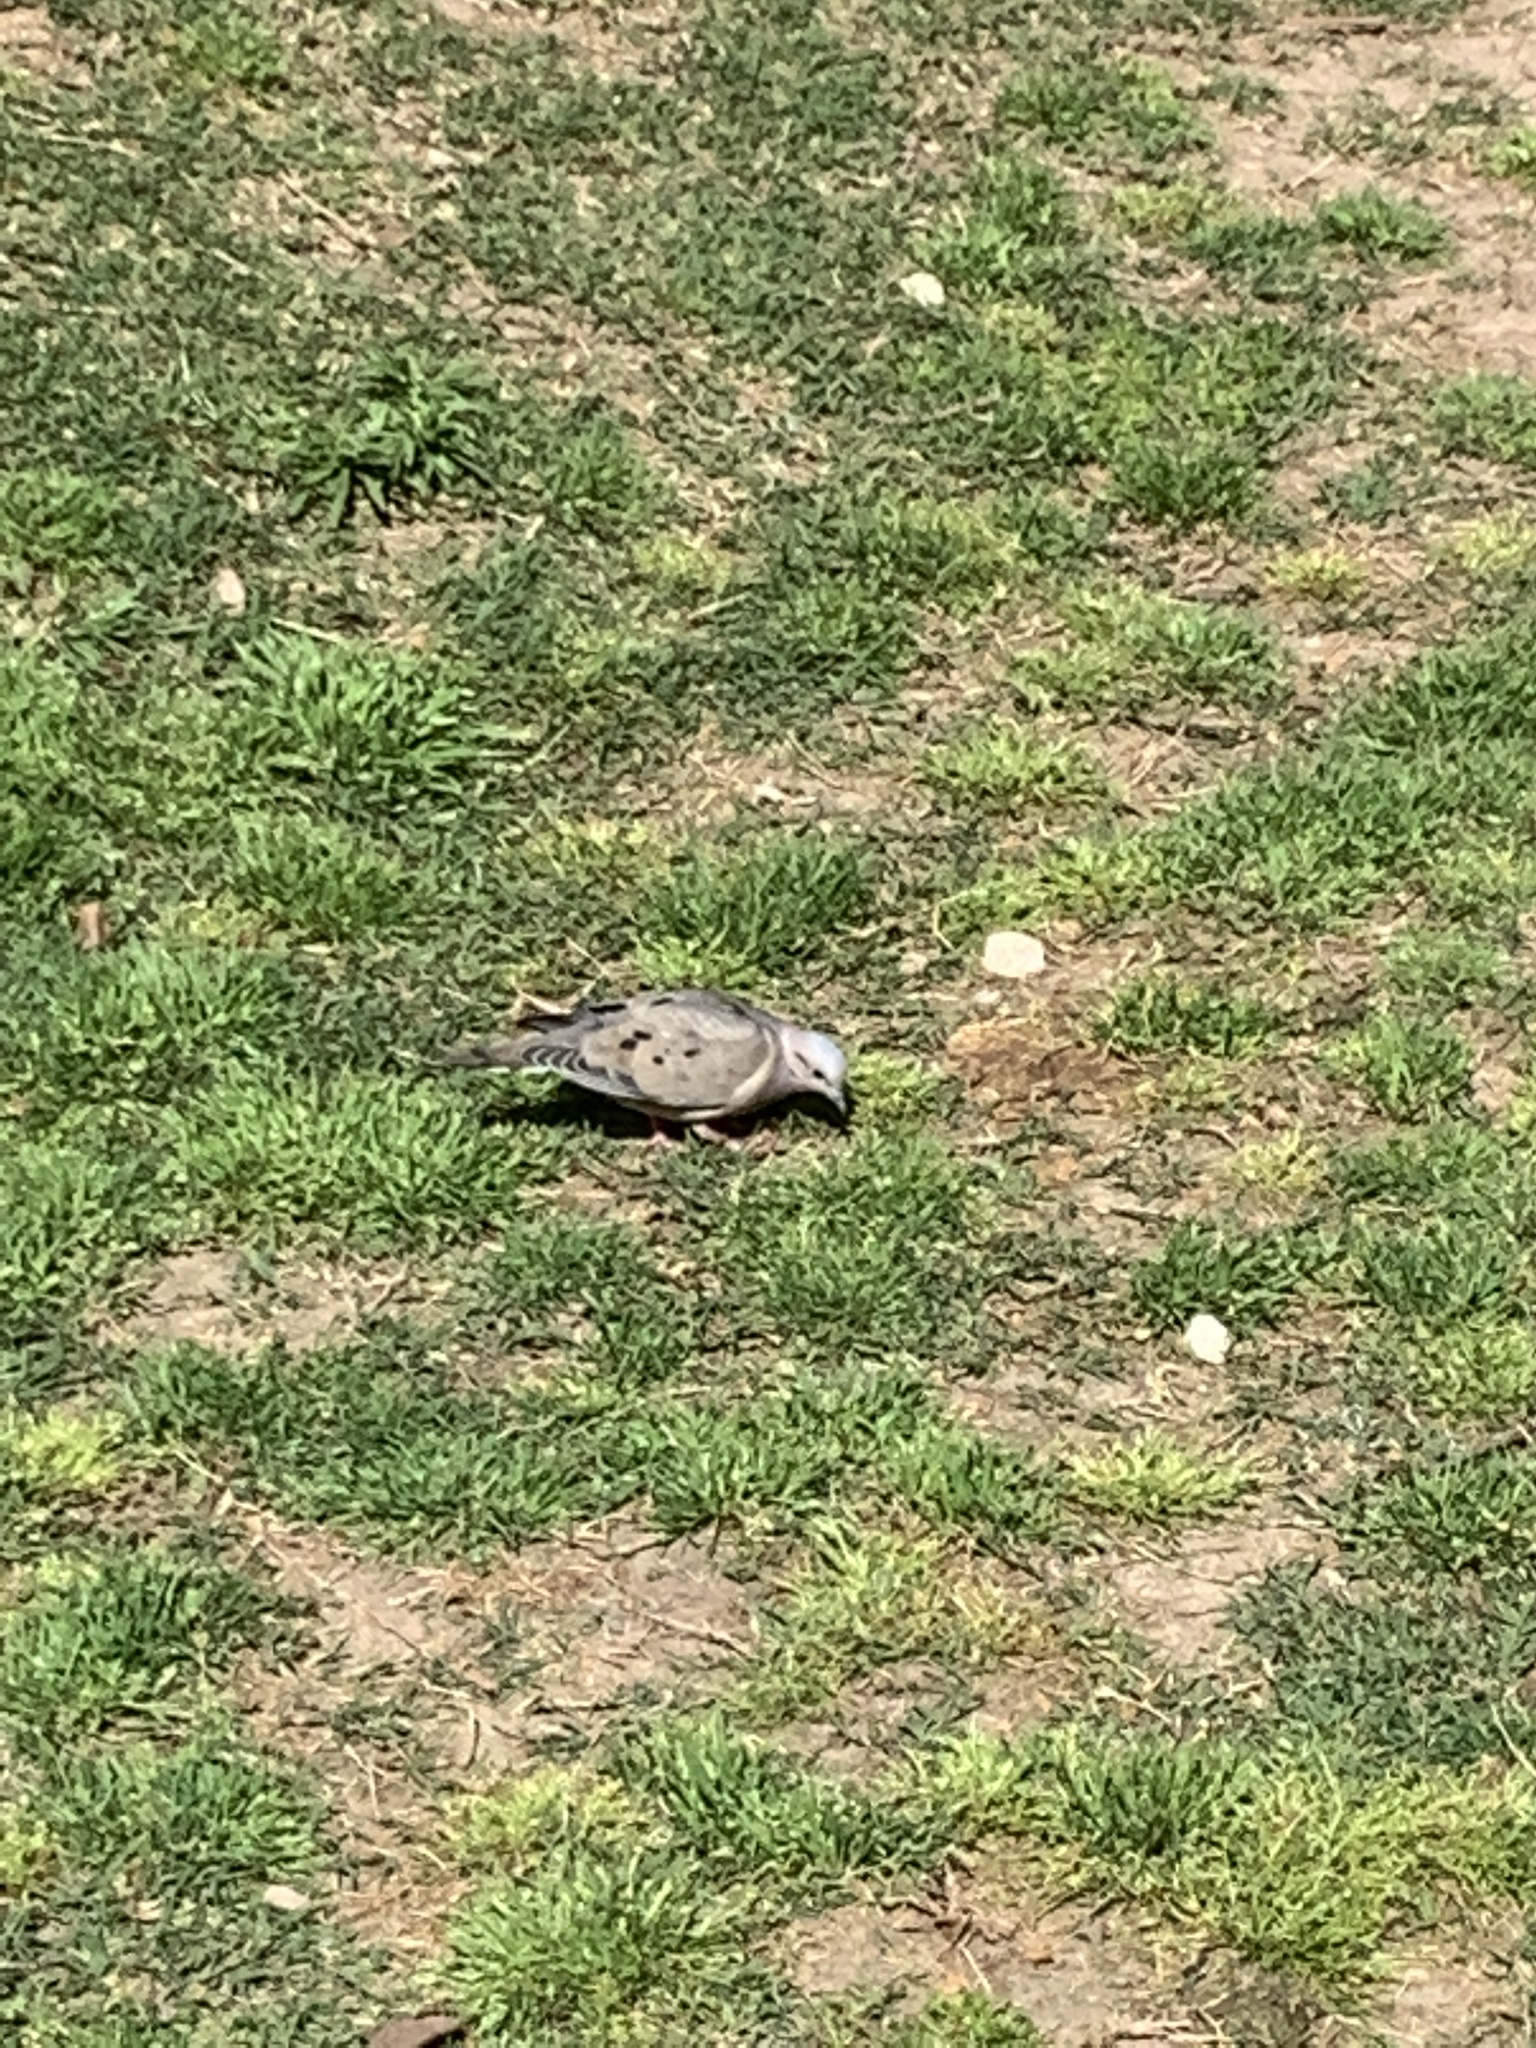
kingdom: Animalia
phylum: Chordata
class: Aves
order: Columbiformes
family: Columbidae
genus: Zenaida
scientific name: Zenaida auriculata
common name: Eared dove
